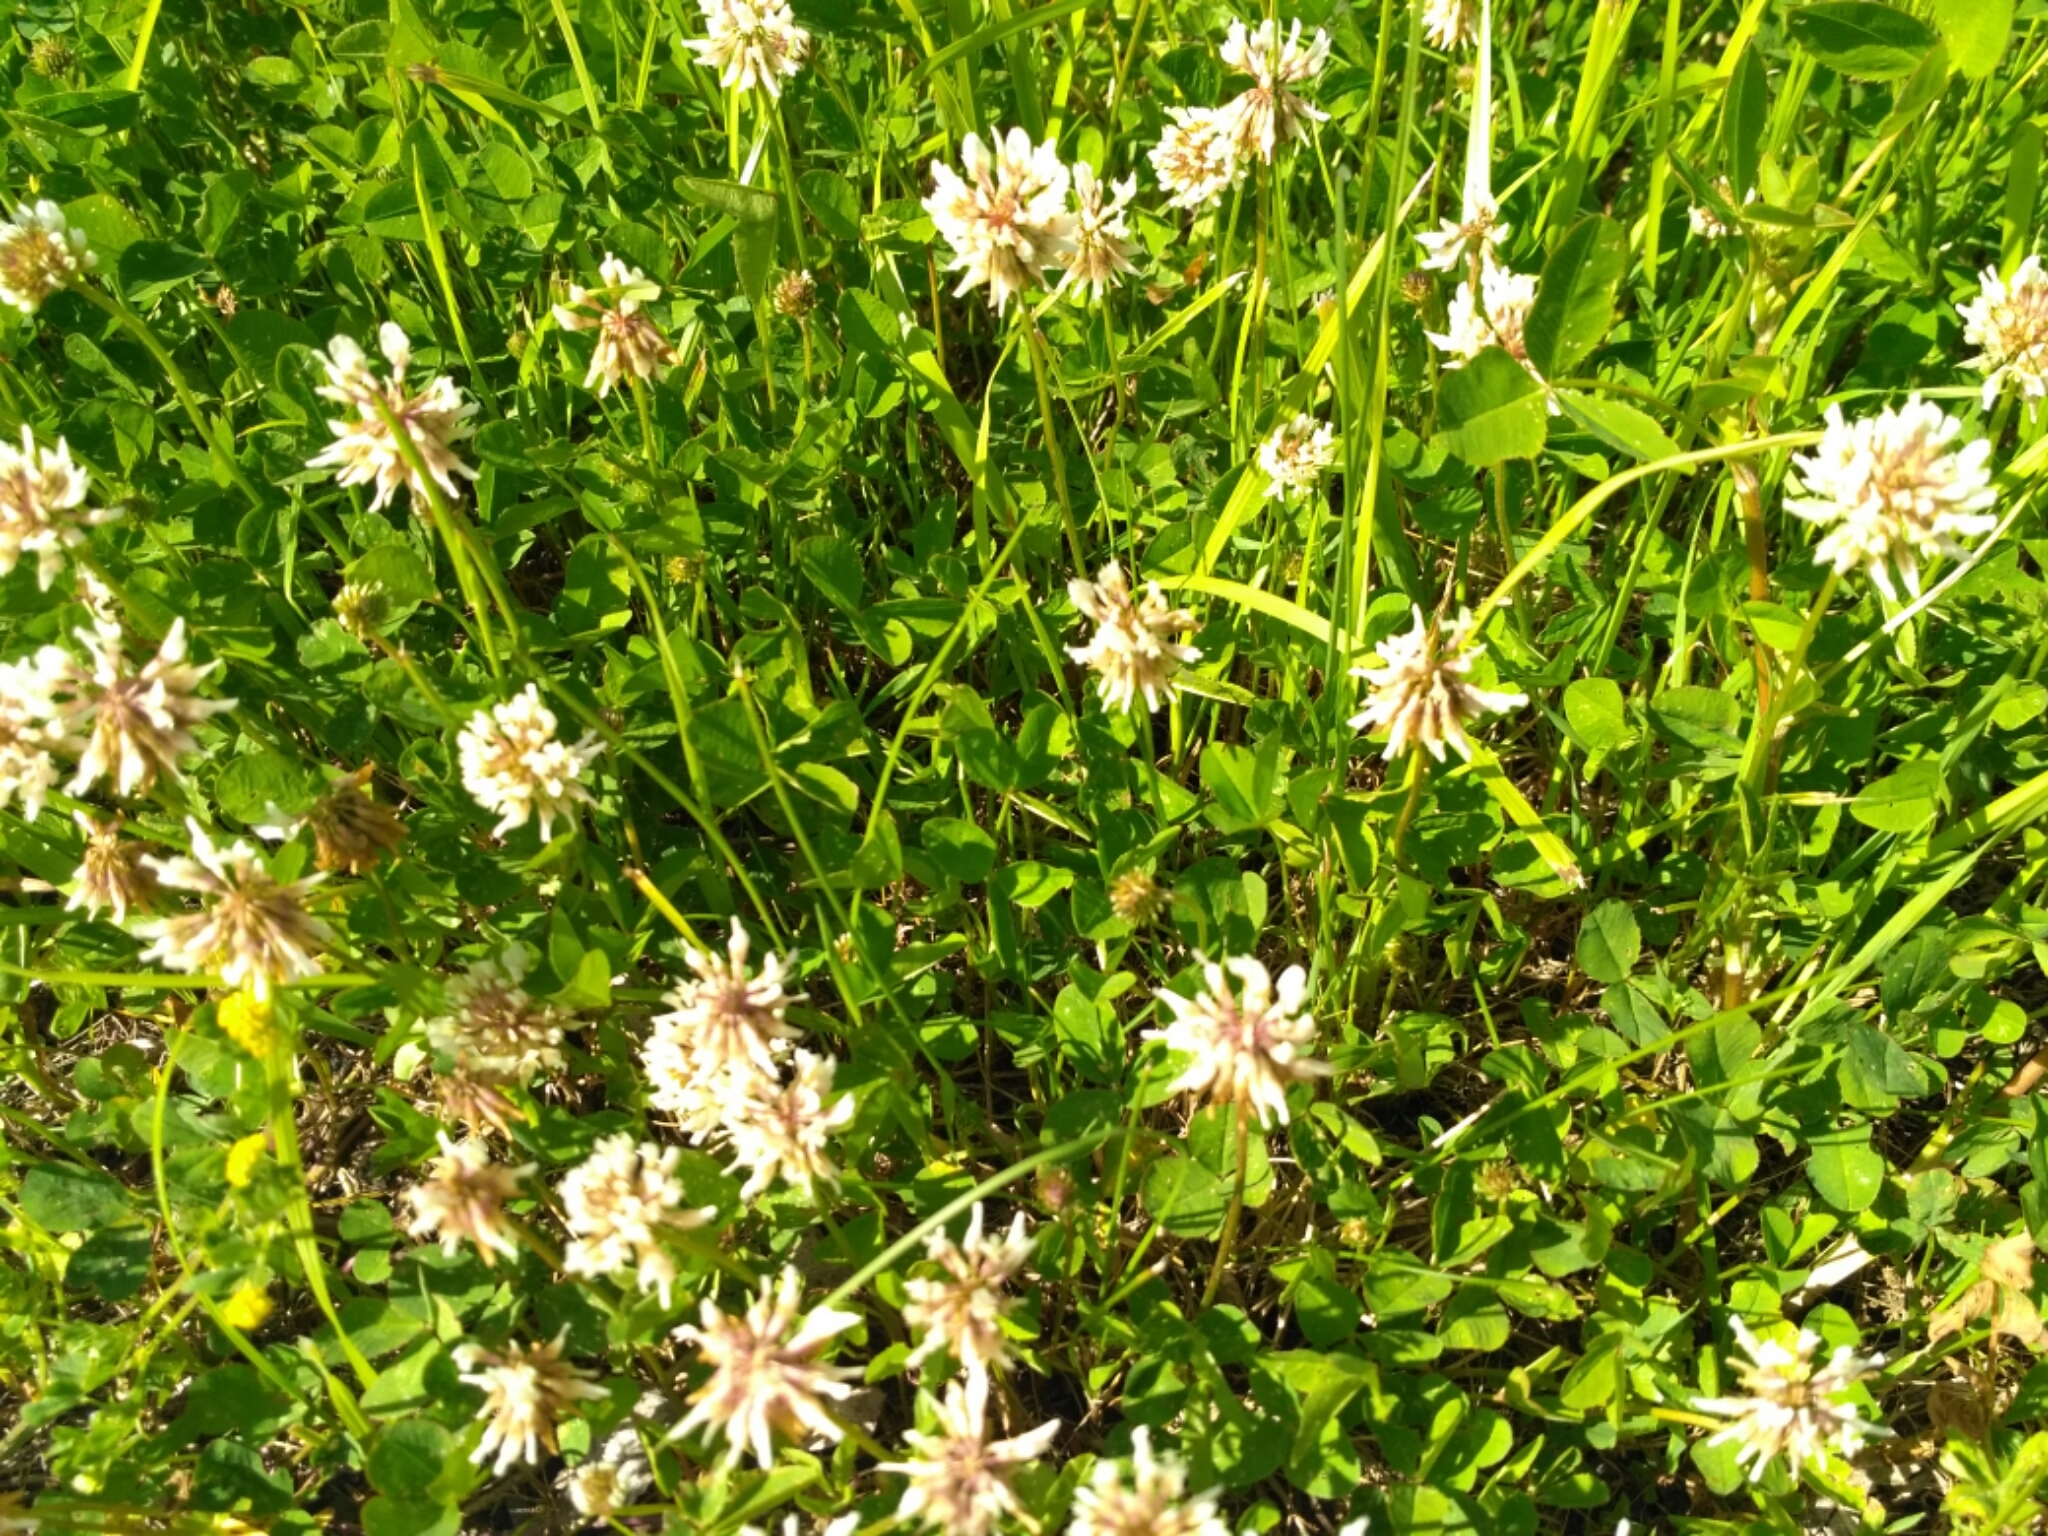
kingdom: Plantae
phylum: Tracheophyta
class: Magnoliopsida
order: Fabales
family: Fabaceae
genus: Trifolium
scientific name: Trifolium repens
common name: White clover
